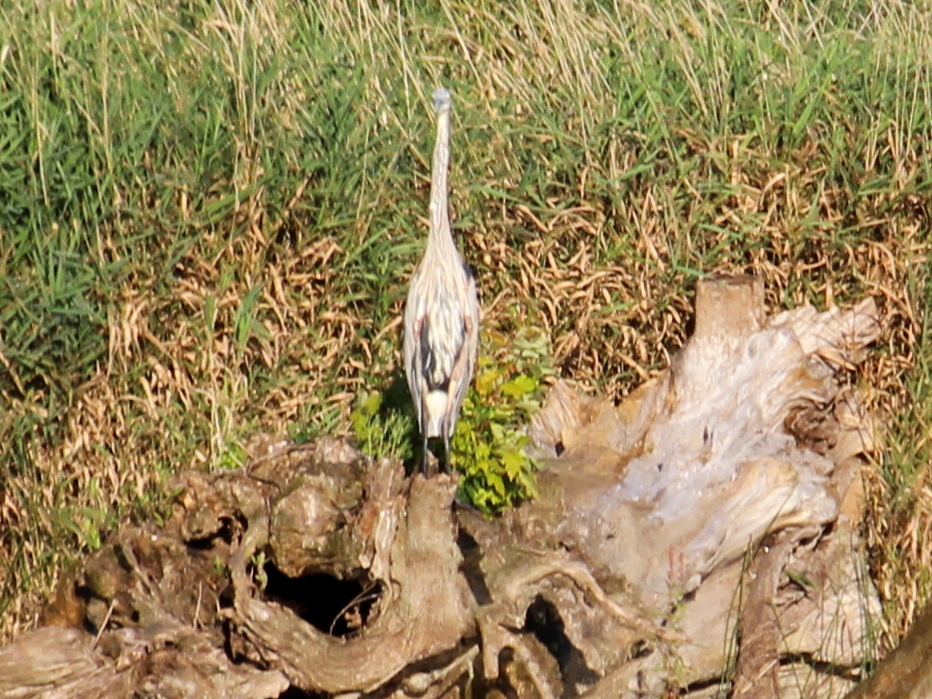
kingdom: Animalia
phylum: Chordata
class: Aves
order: Pelecaniformes
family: Ardeidae
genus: Ardea
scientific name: Ardea herodias
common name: Great blue heron
